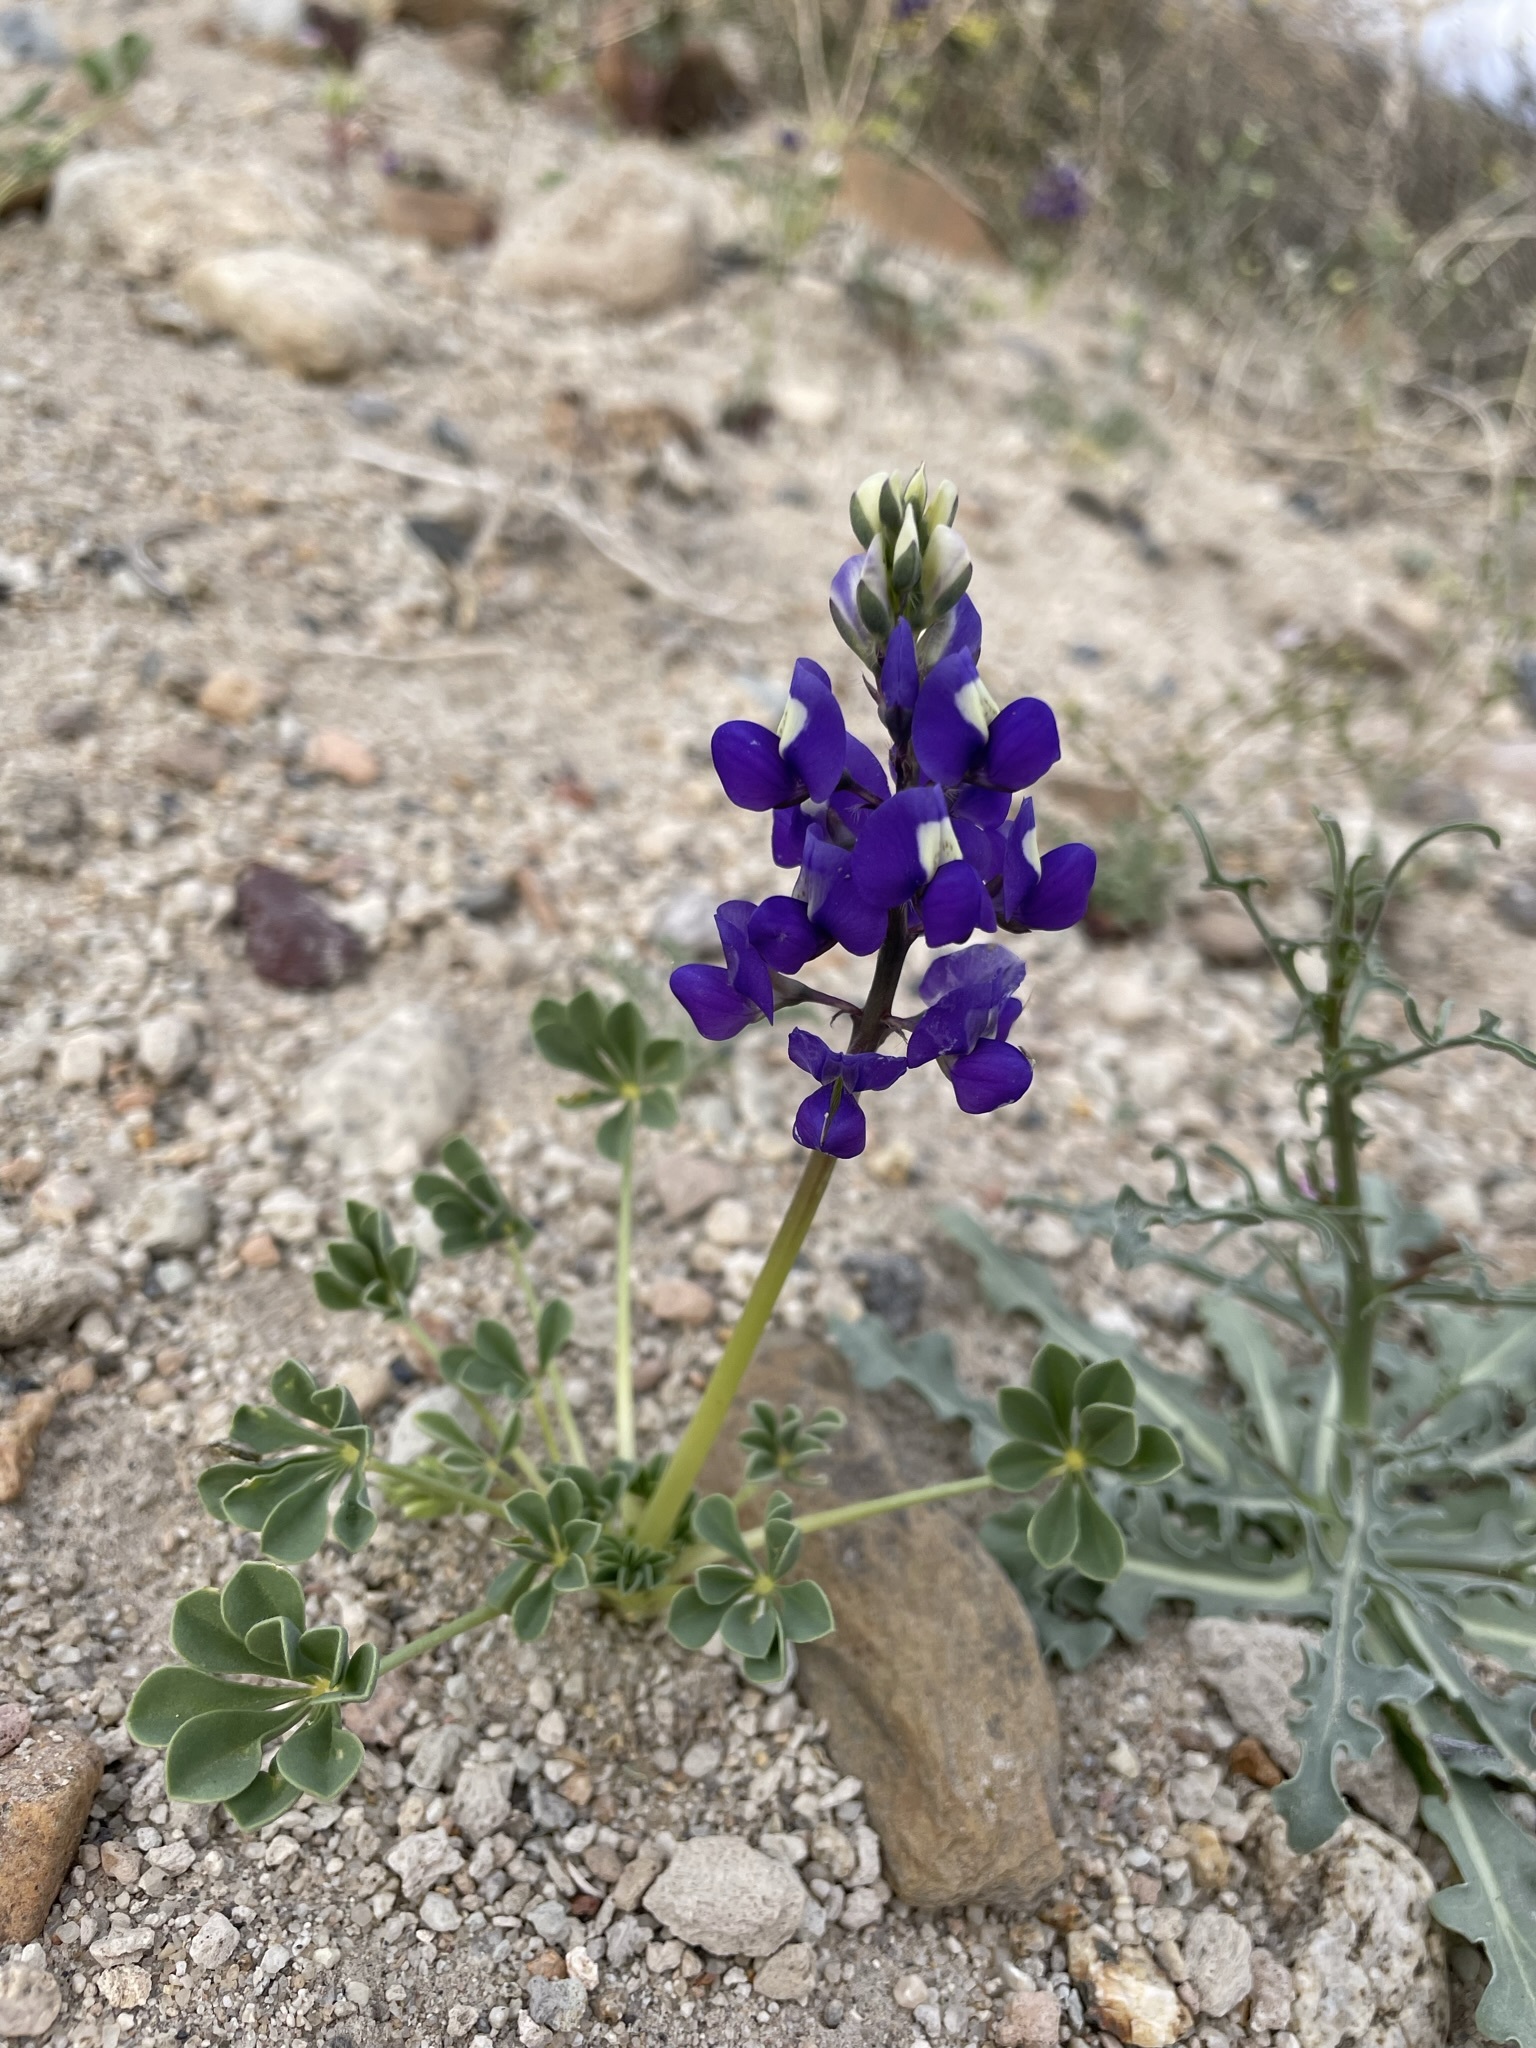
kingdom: Plantae
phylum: Tracheophyta
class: Magnoliopsida
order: Fabales
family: Fabaceae
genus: Lupinus
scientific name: Lupinus
